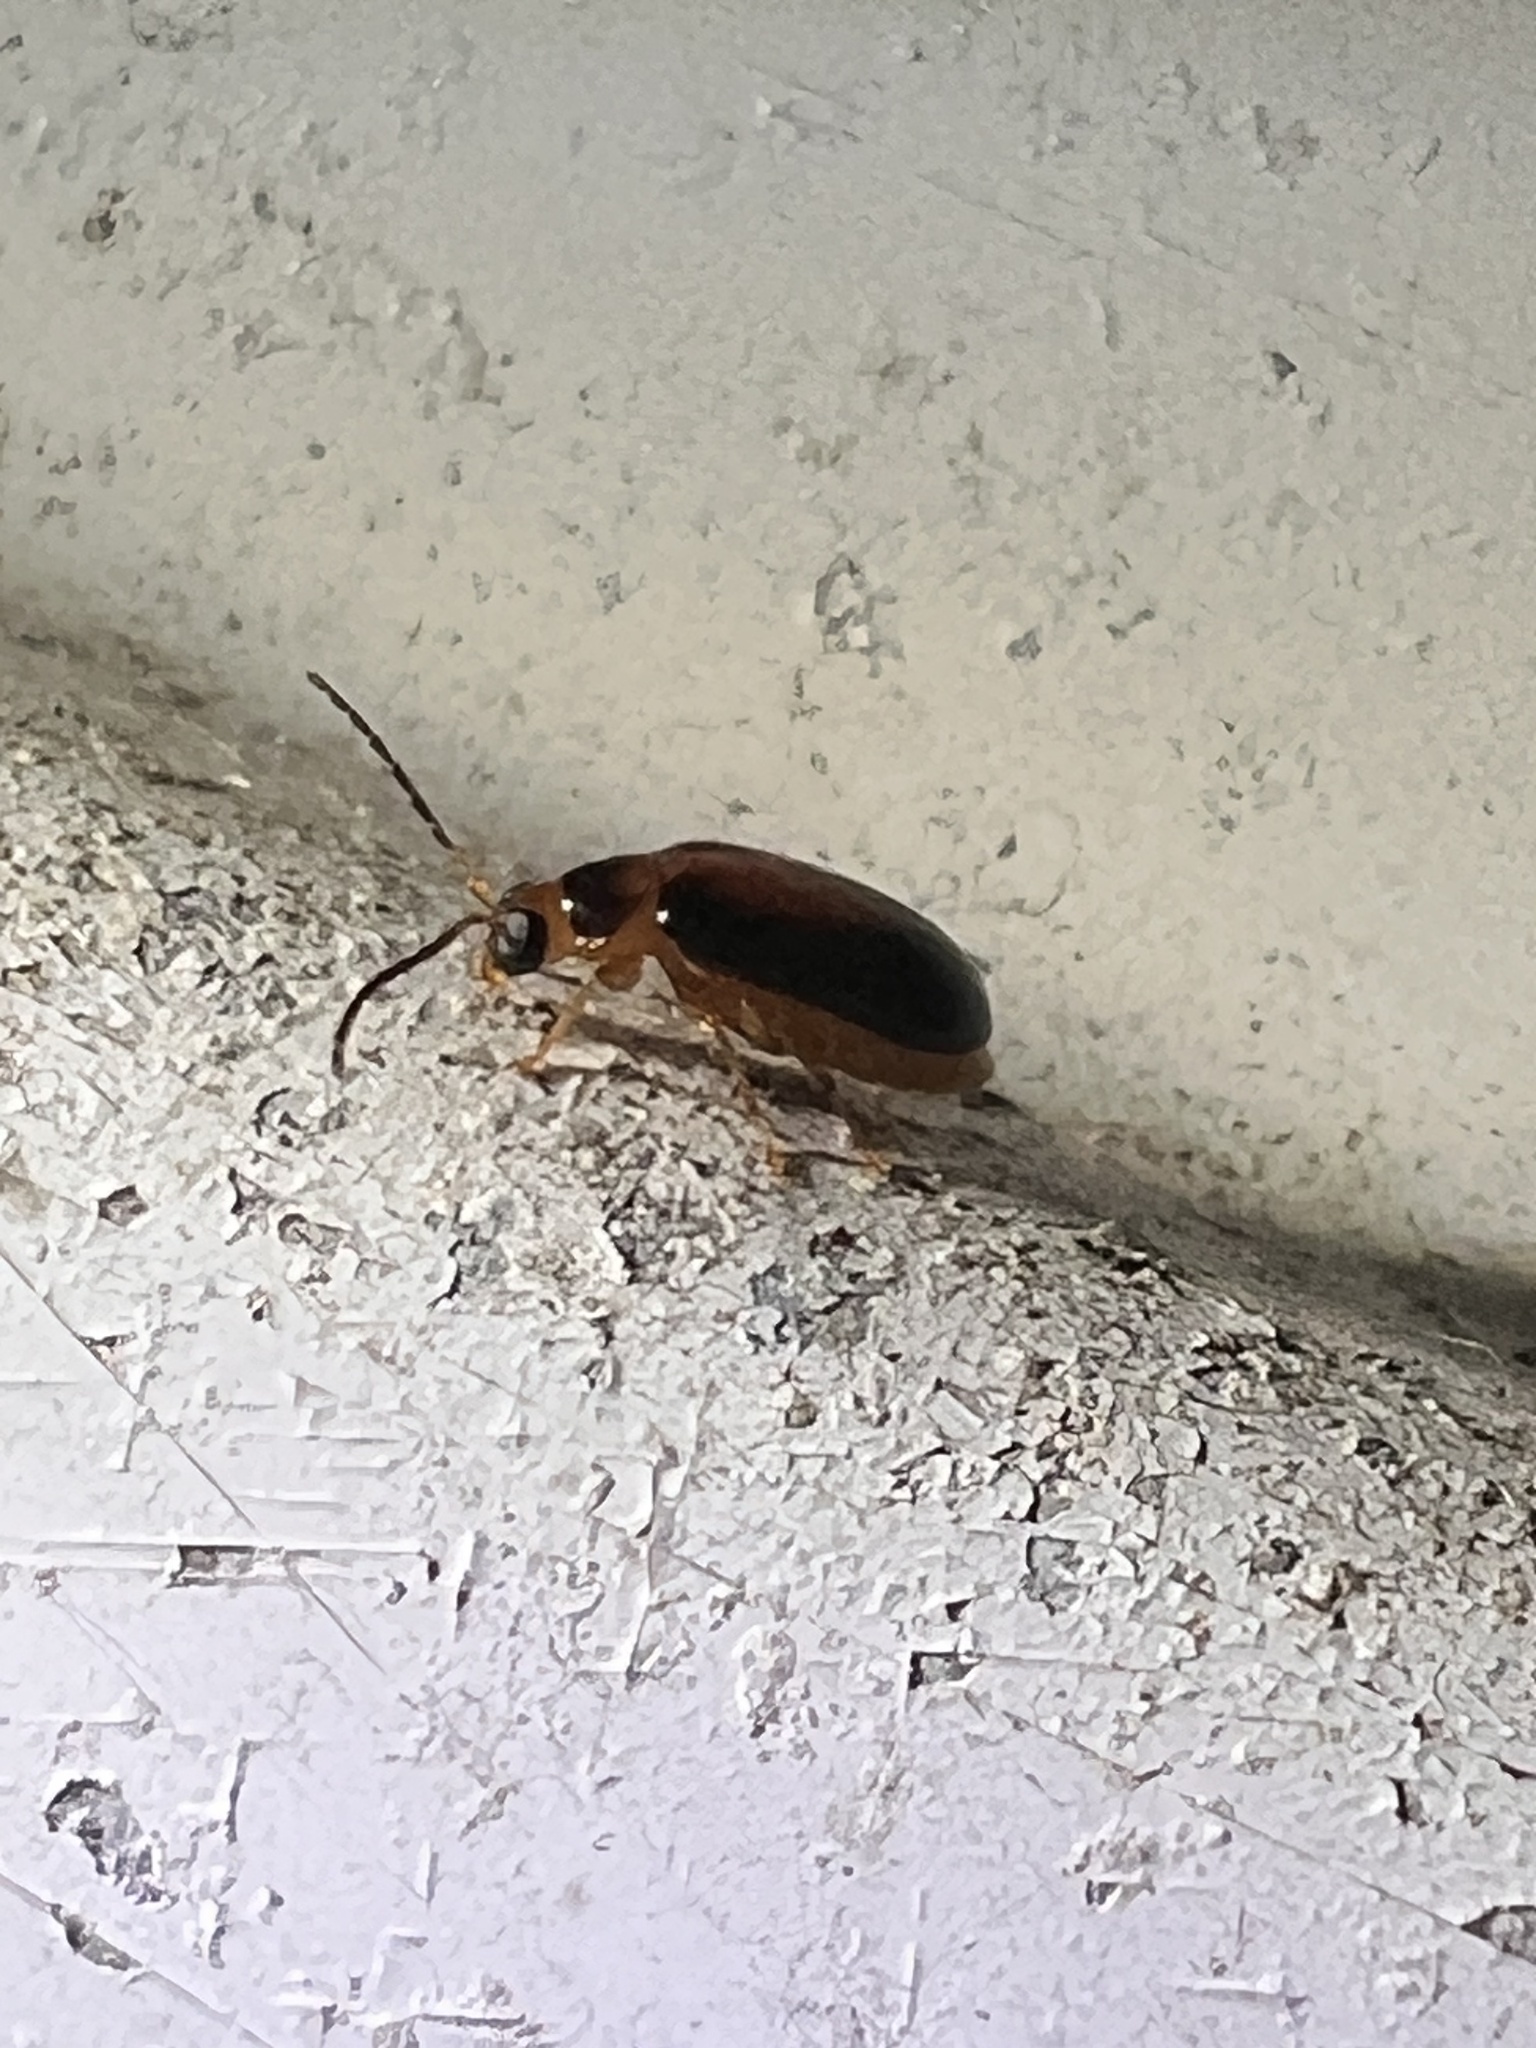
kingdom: Animalia
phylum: Arthropoda
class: Insecta
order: Coleoptera
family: Chrysomelidae
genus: Monolepta
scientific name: Monolepta
